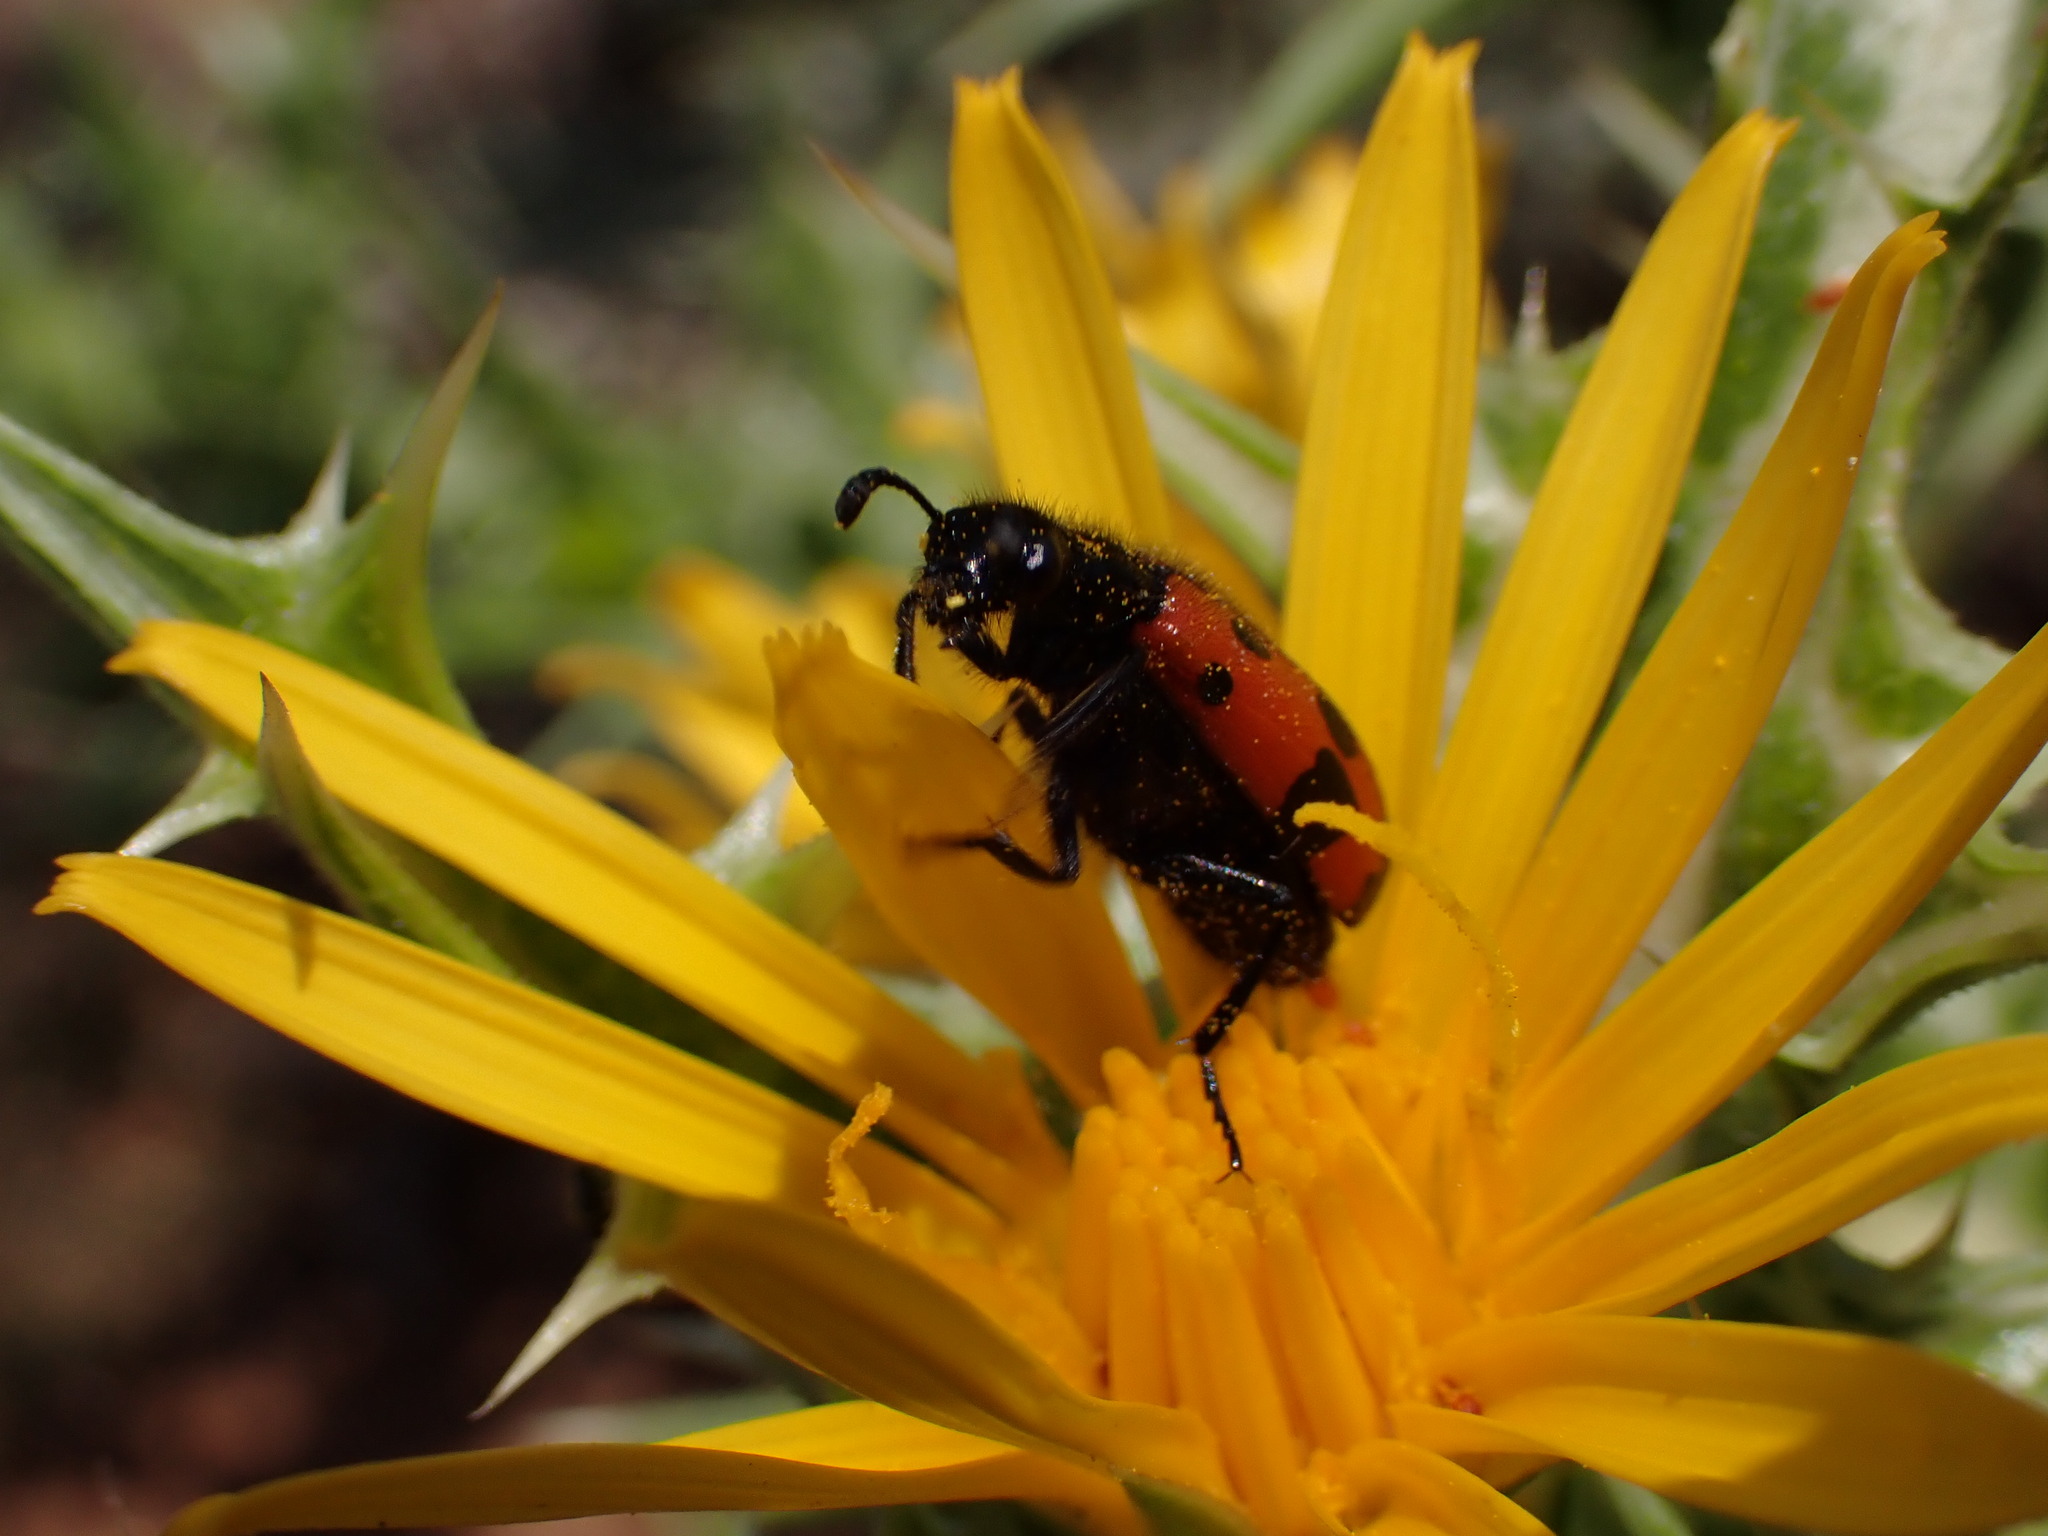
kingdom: Animalia
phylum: Arthropoda
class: Insecta
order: Coleoptera
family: Meloidae
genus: Mylabris
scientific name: Mylabris quadripunctata
